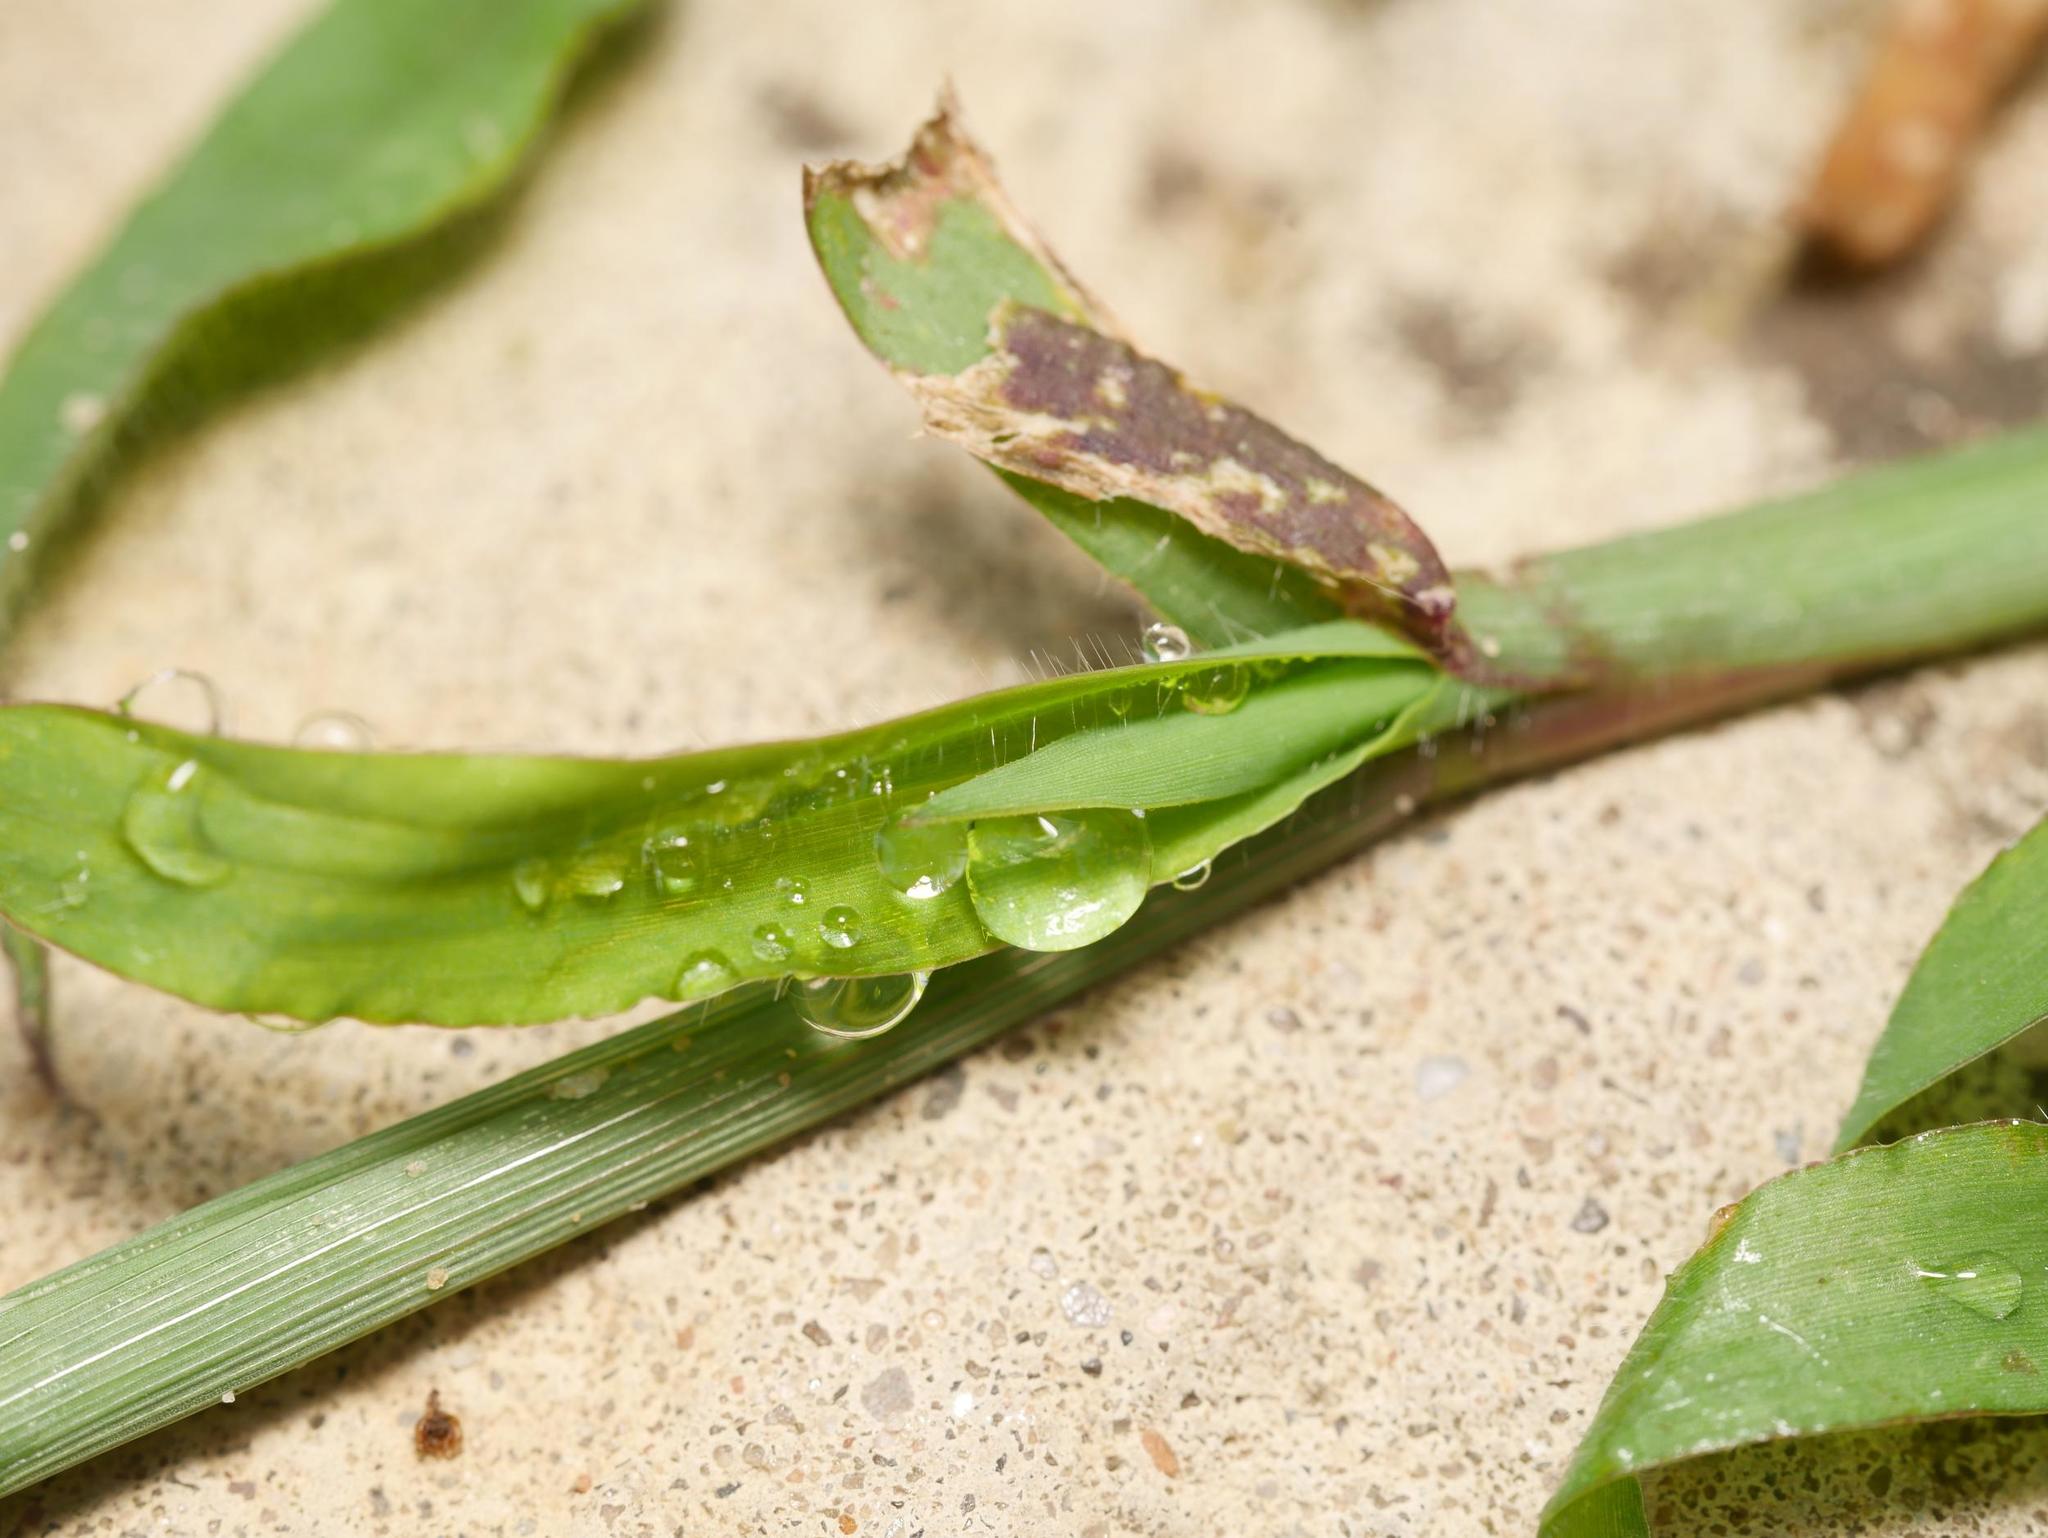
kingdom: Plantae
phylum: Tracheophyta
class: Liliopsida
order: Poales
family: Poaceae
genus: Digitaria
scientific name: Digitaria sanguinalis
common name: Hairy crabgrass
